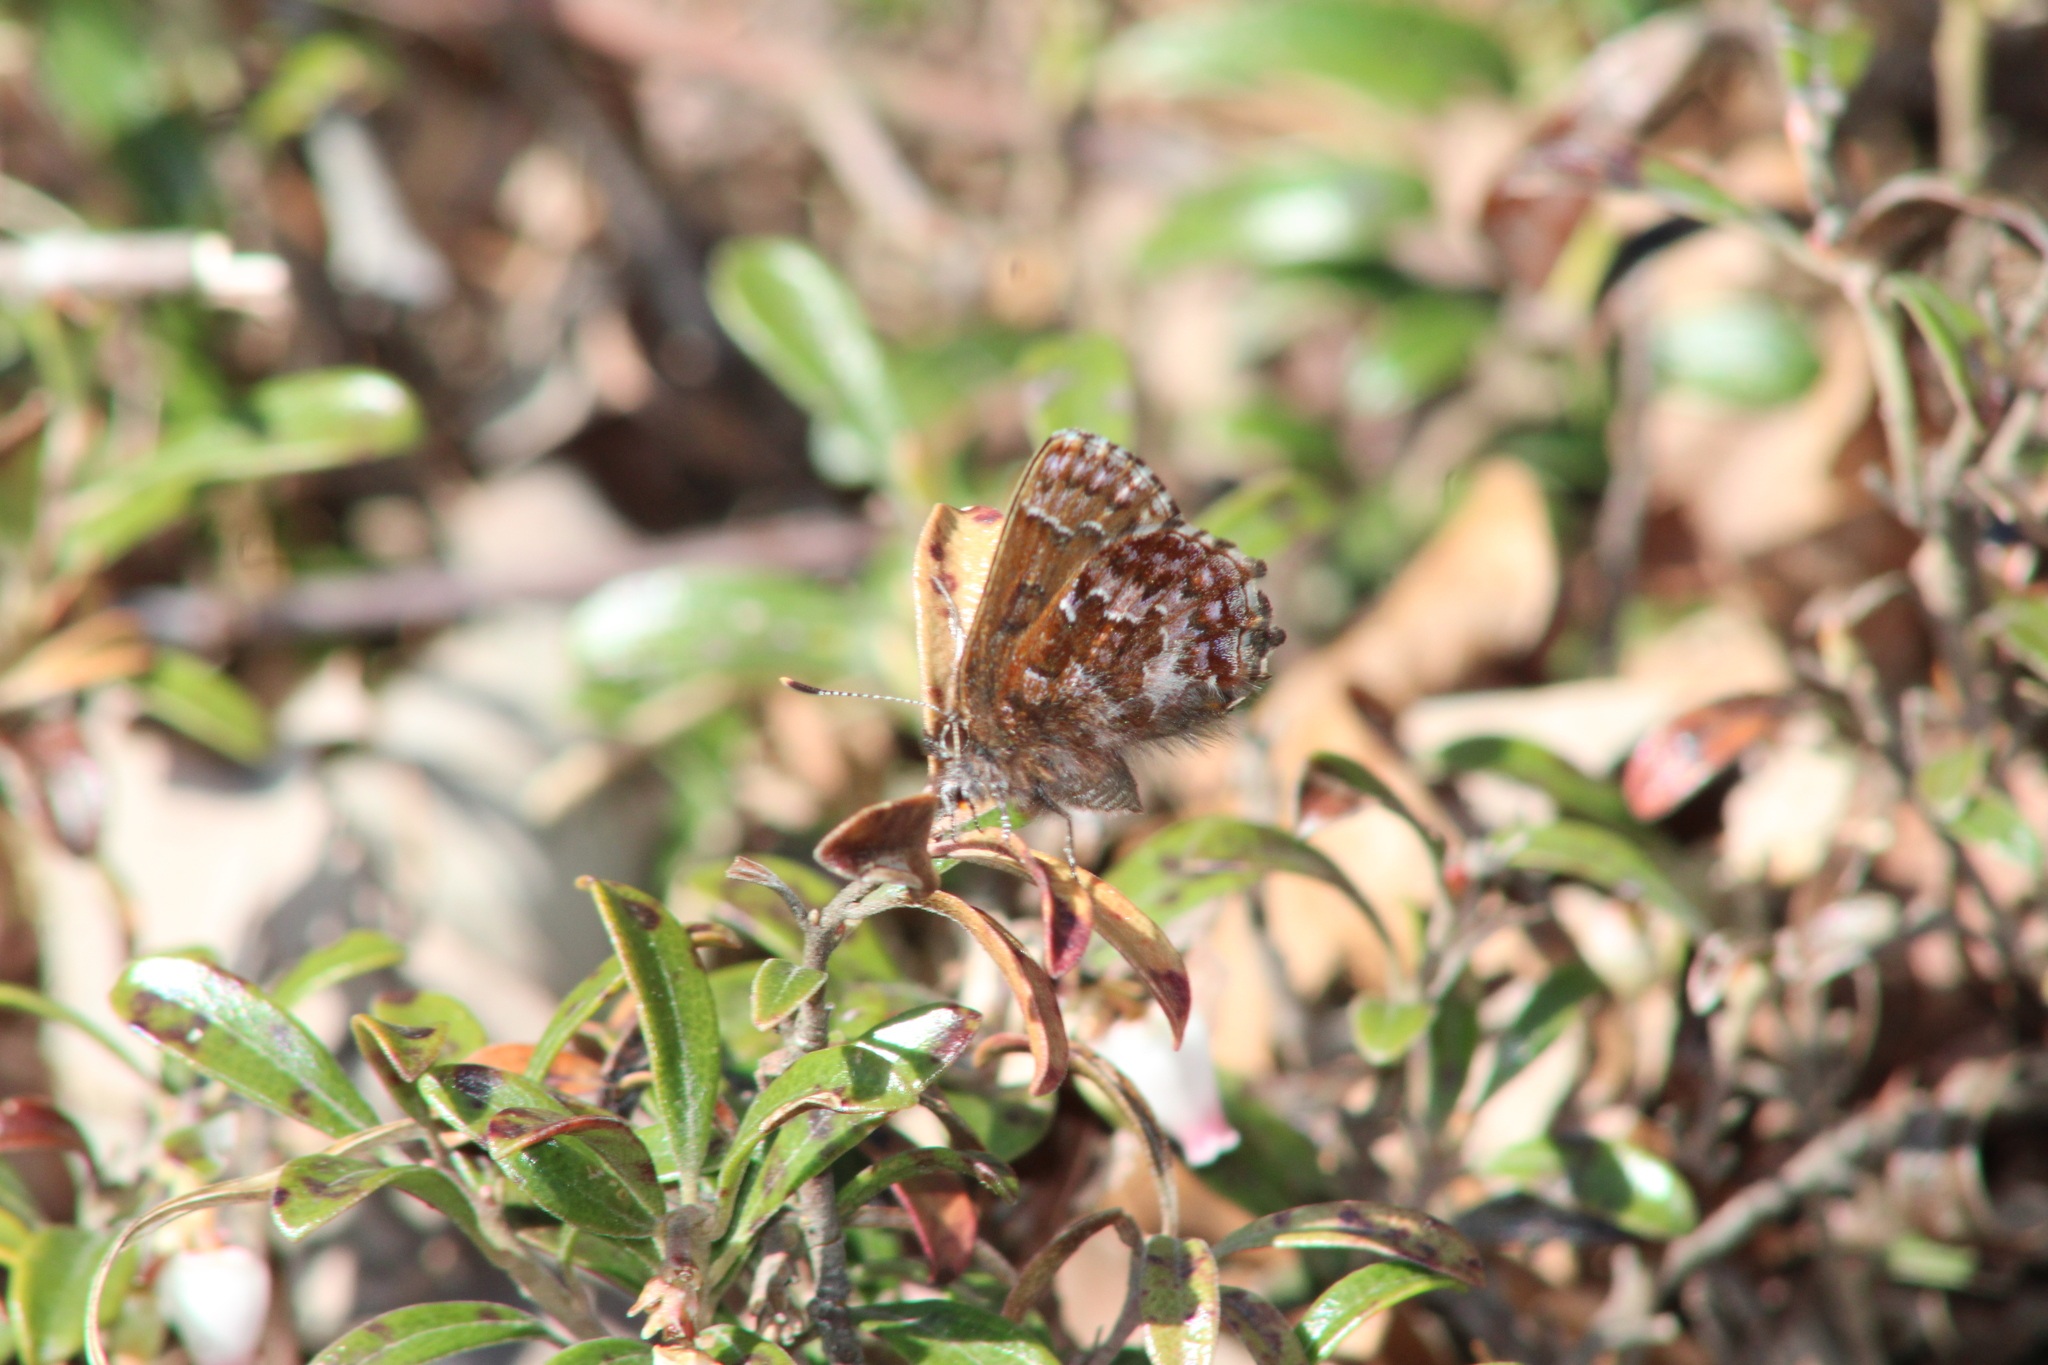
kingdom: Animalia
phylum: Arthropoda
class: Insecta
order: Lepidoptera
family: Lycaenidae
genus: Incisalia
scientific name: Incisalia niphon
